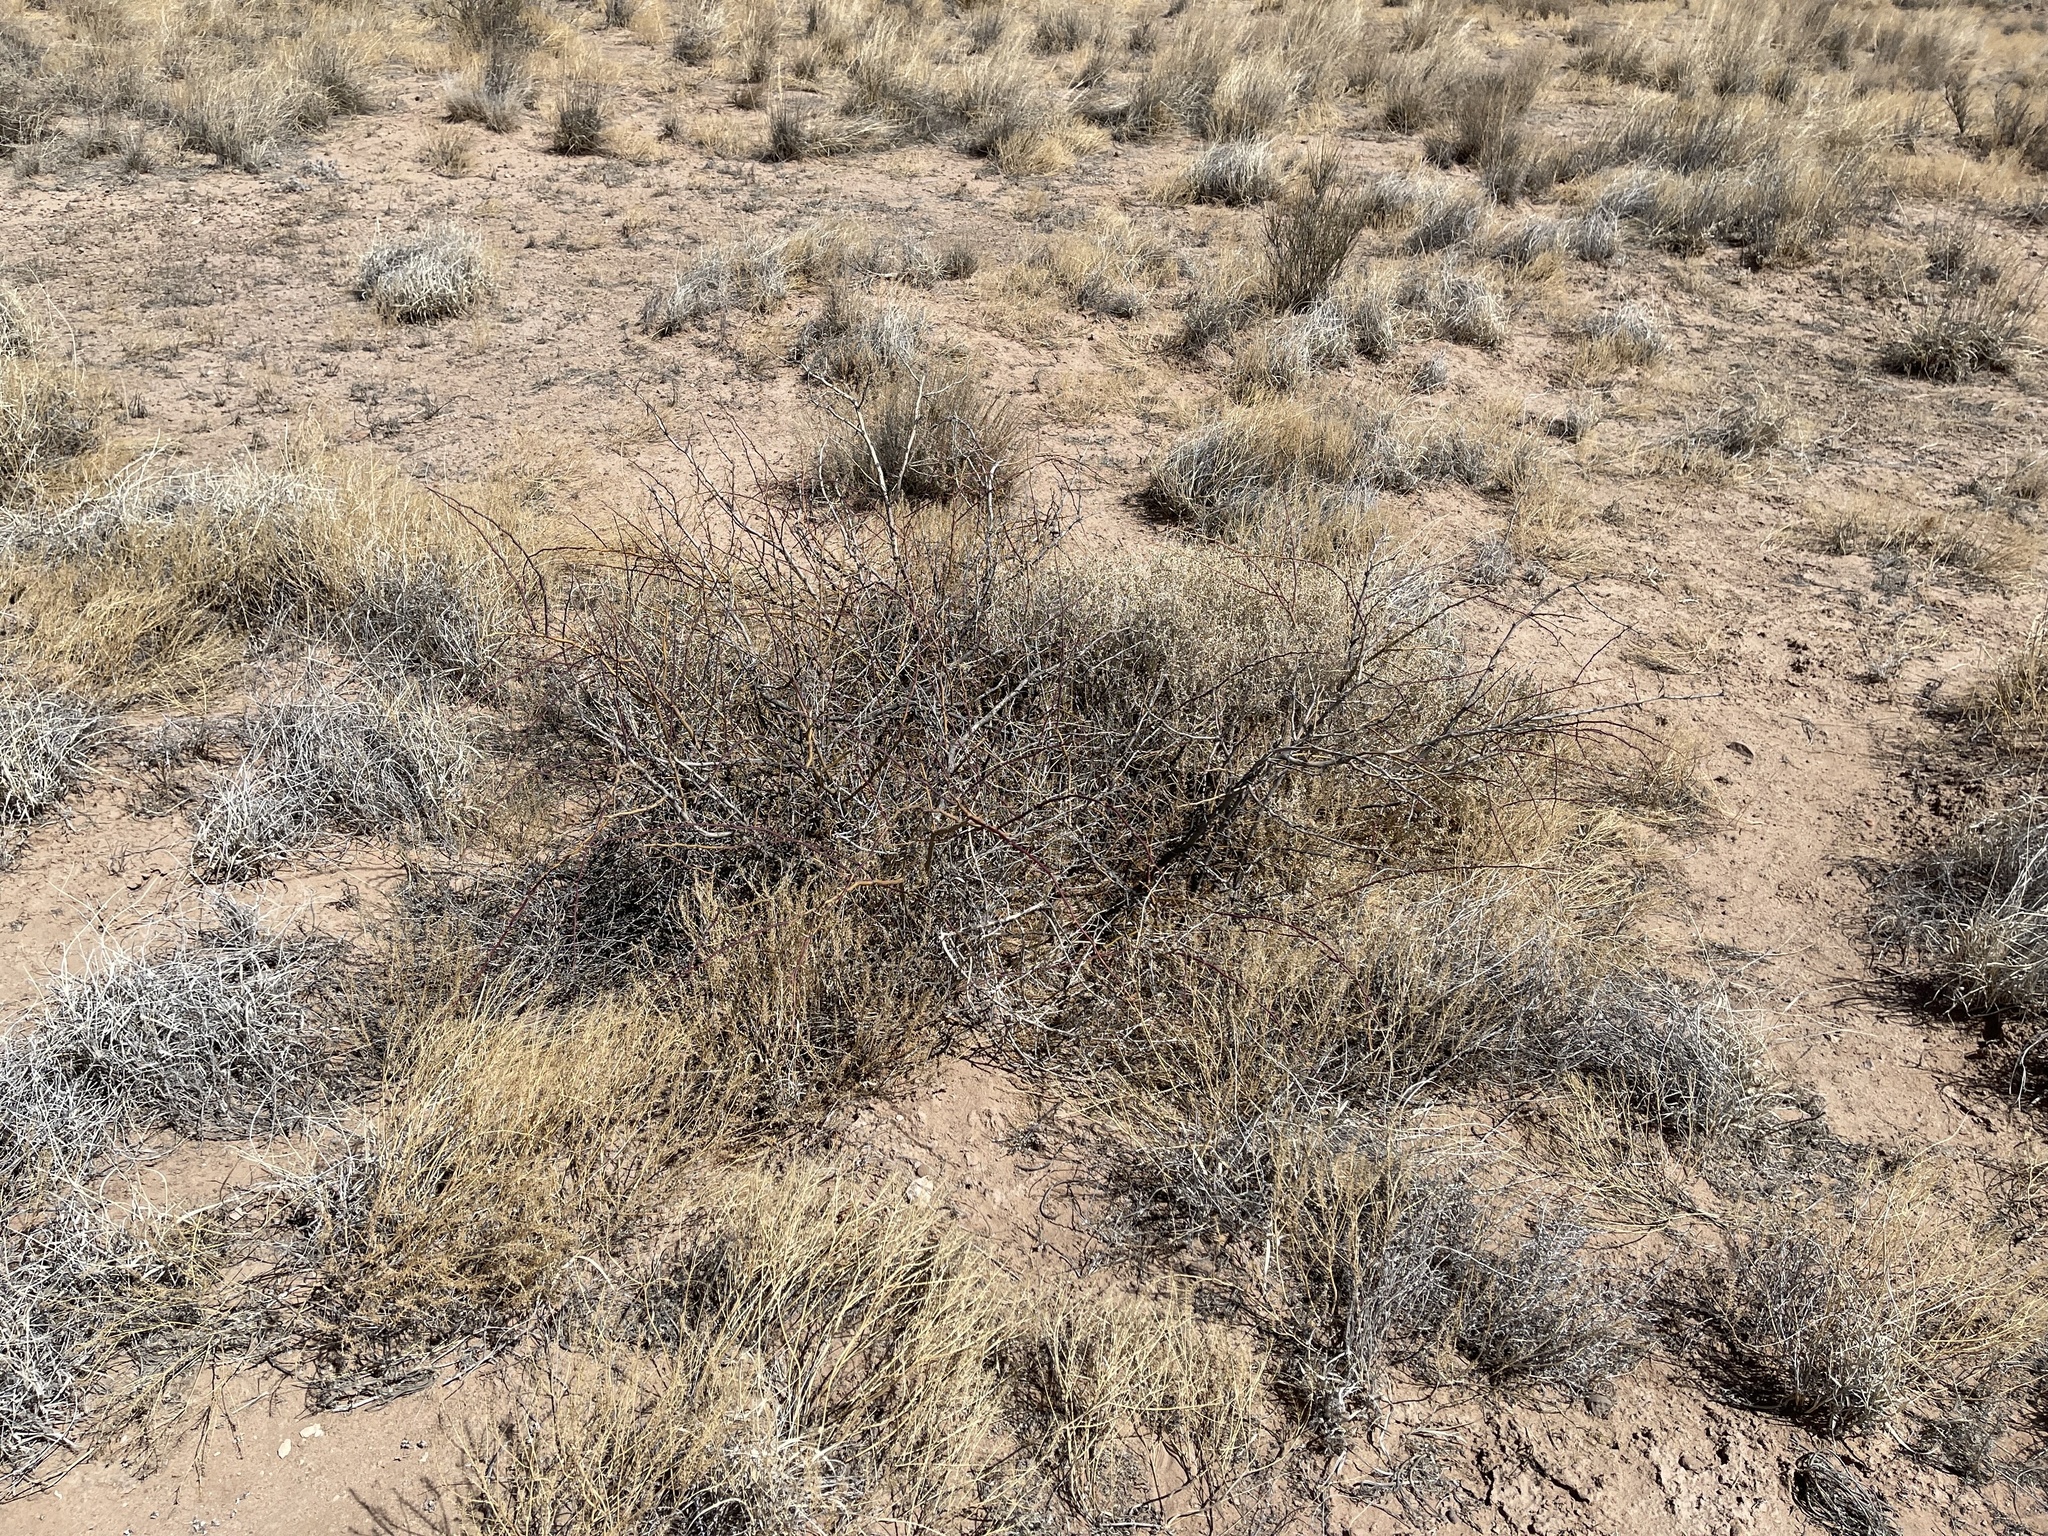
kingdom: Plantae
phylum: Tracheophyta
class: Magnoliopsida
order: Fabales
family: Fabaceae
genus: Prosopis
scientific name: Prosopis glandulosa
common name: Honey mesquite
